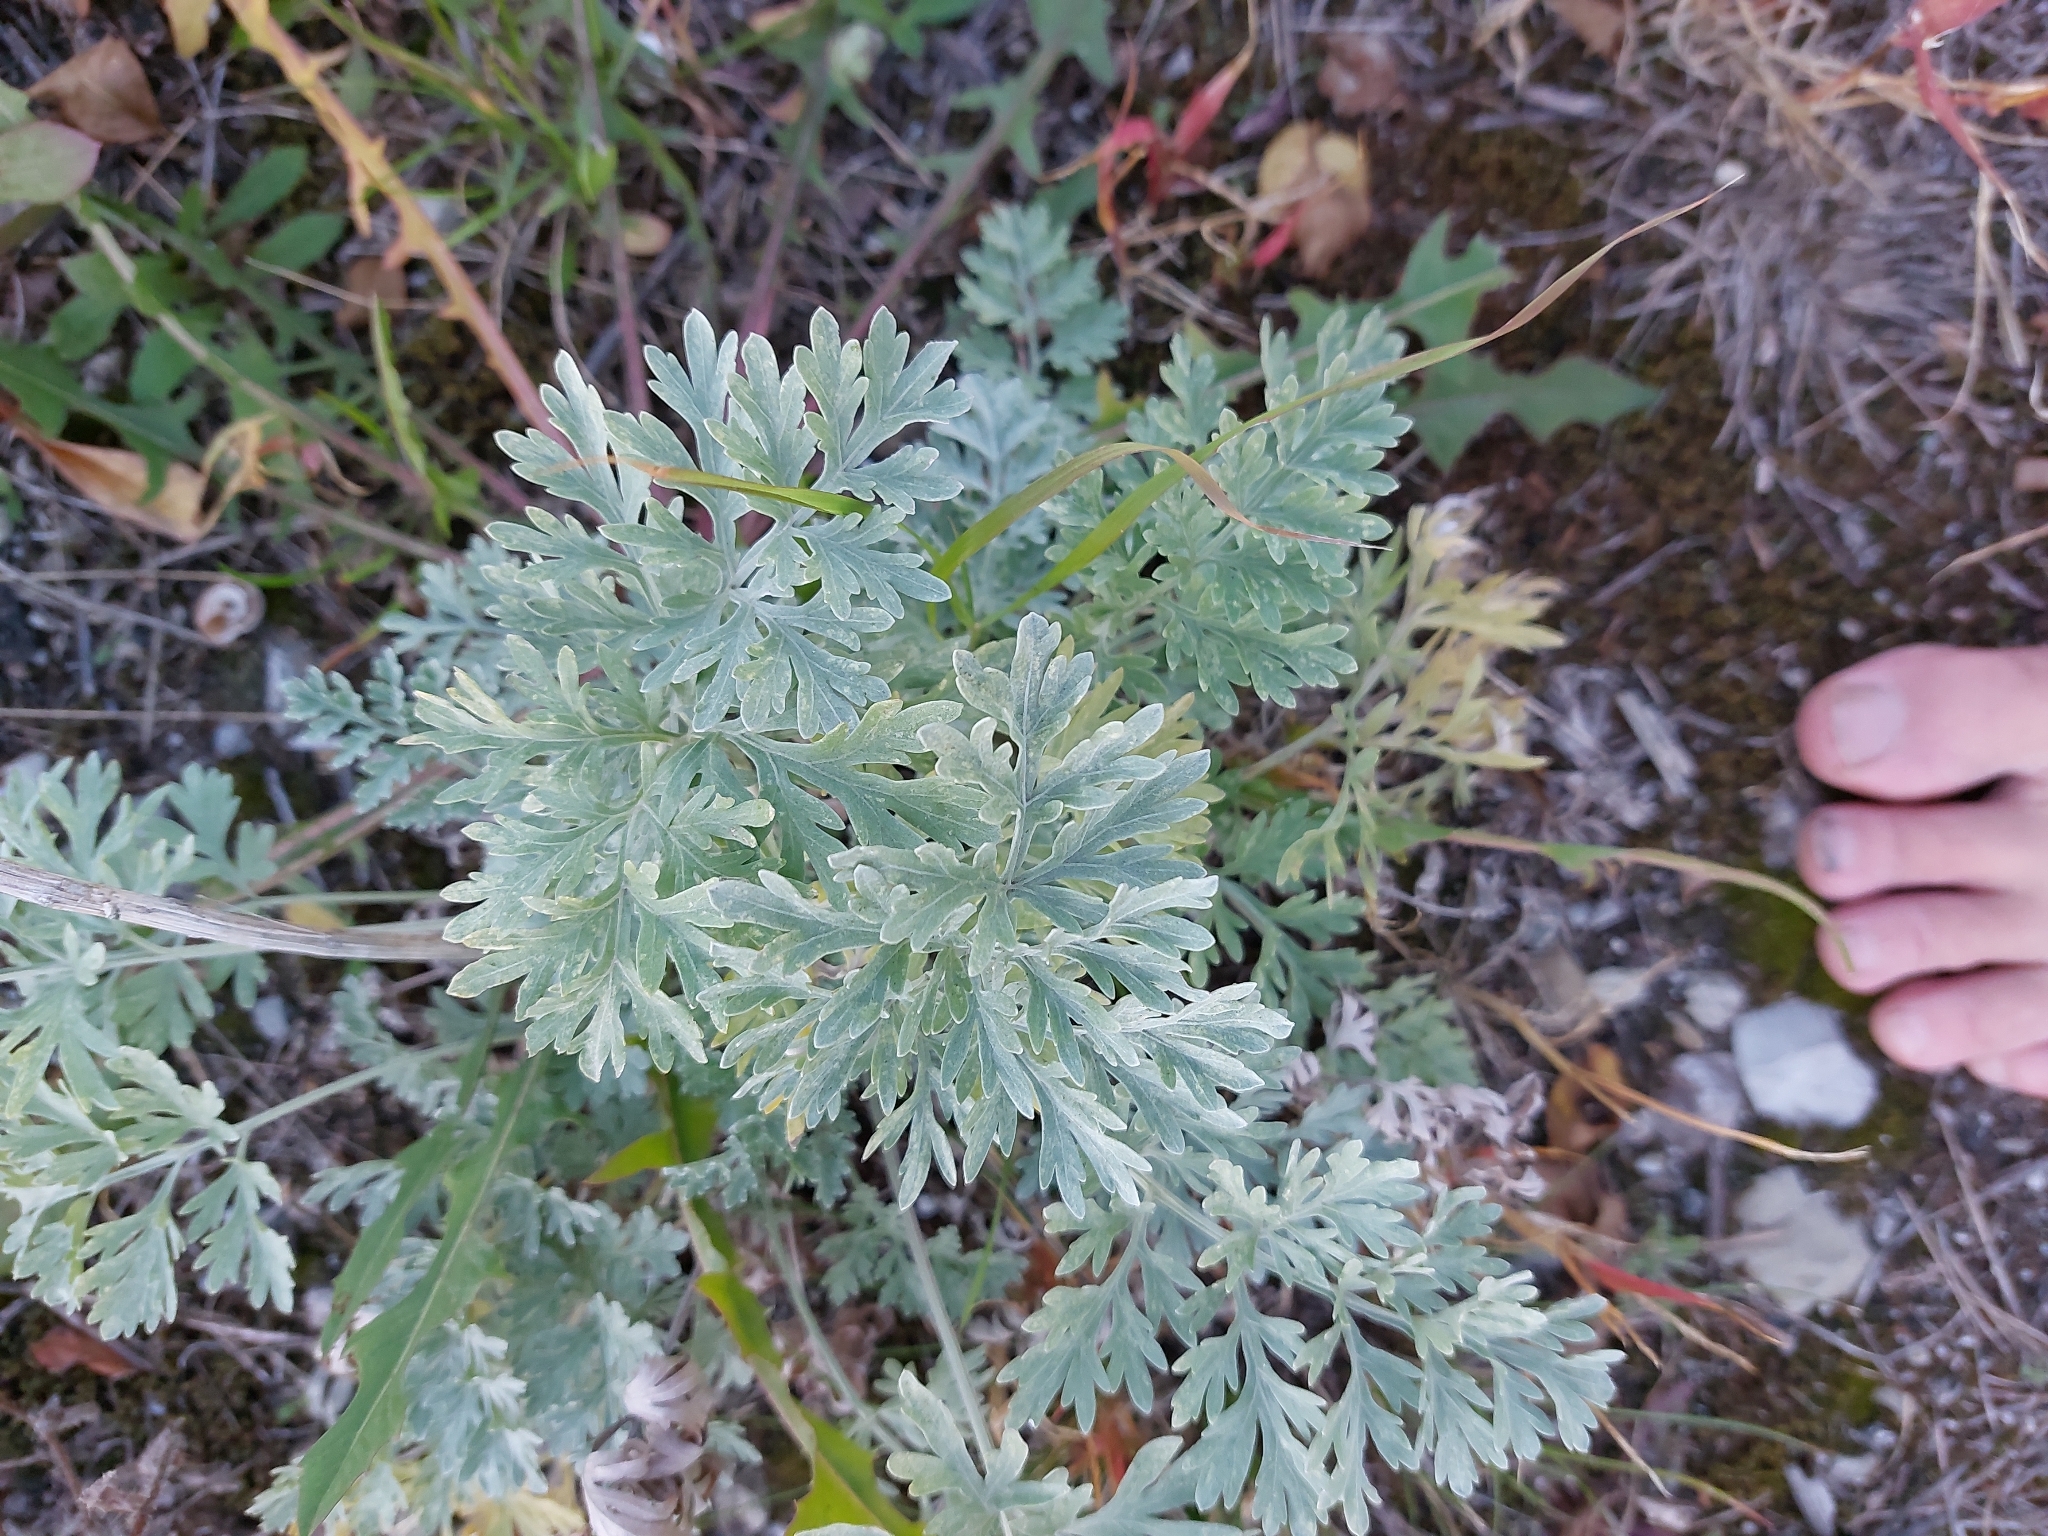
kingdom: Plantae
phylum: Tracheophyta
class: Magnoliopsida
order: Asterales
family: Asteraceae
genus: Artemisia
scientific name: Artemisia absinthium
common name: Wormwood
